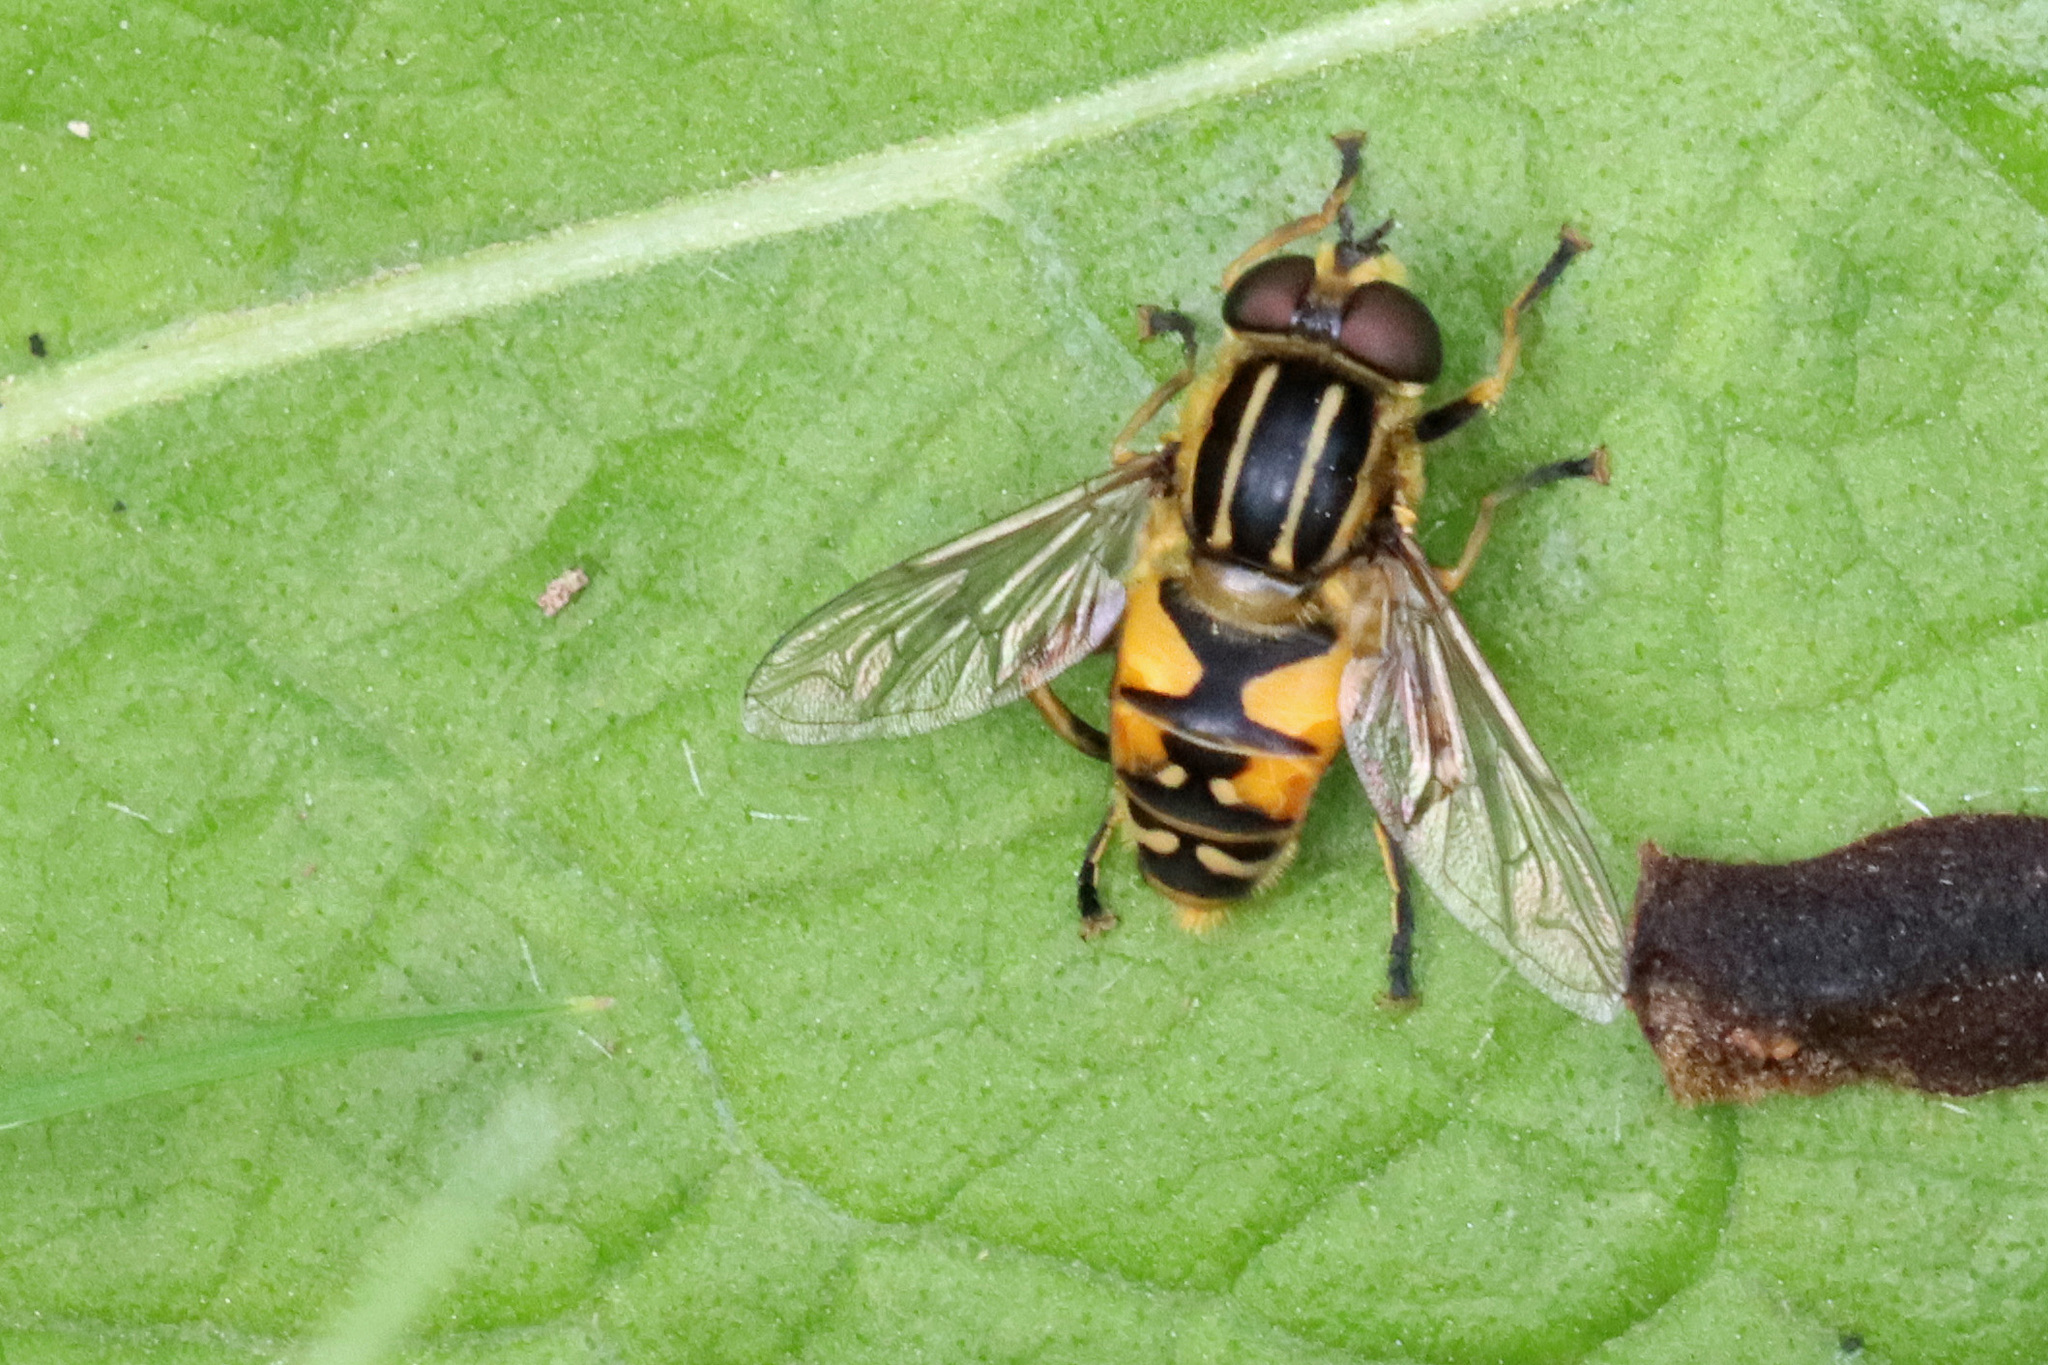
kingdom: Animalia
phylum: Arthropoda
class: Insecta
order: Diptera
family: Syrphidae
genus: Helophilus
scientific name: Helophilus pendulus
